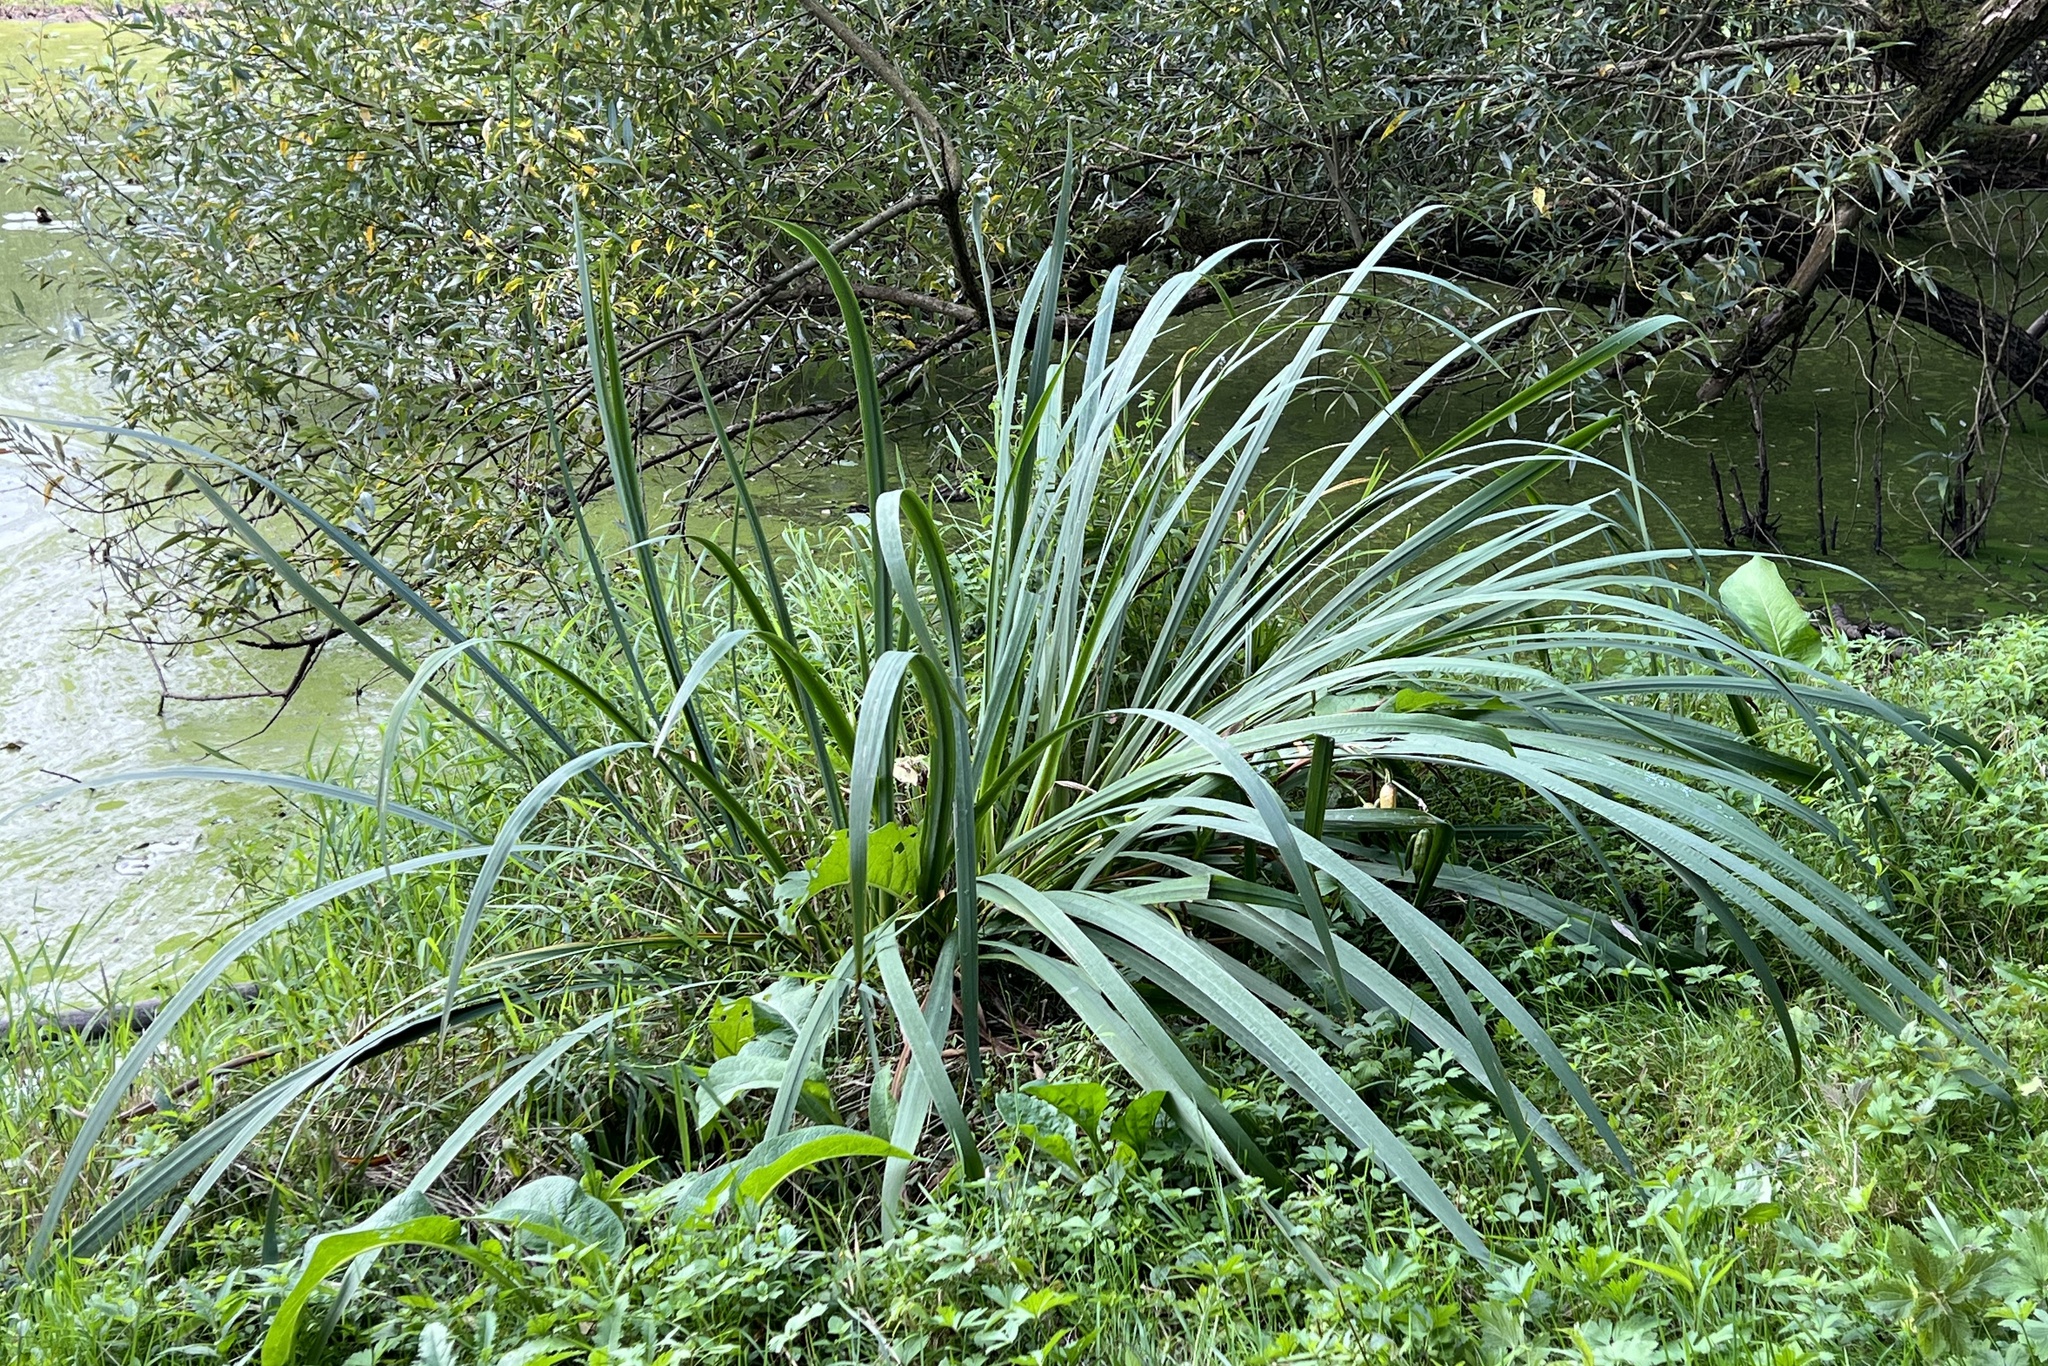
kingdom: Plantae
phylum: Tracheophyta
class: Liliopsida
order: Asparagales
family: Iridaceae
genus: Iris
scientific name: Iris pseudacorus
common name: Yellow flag
